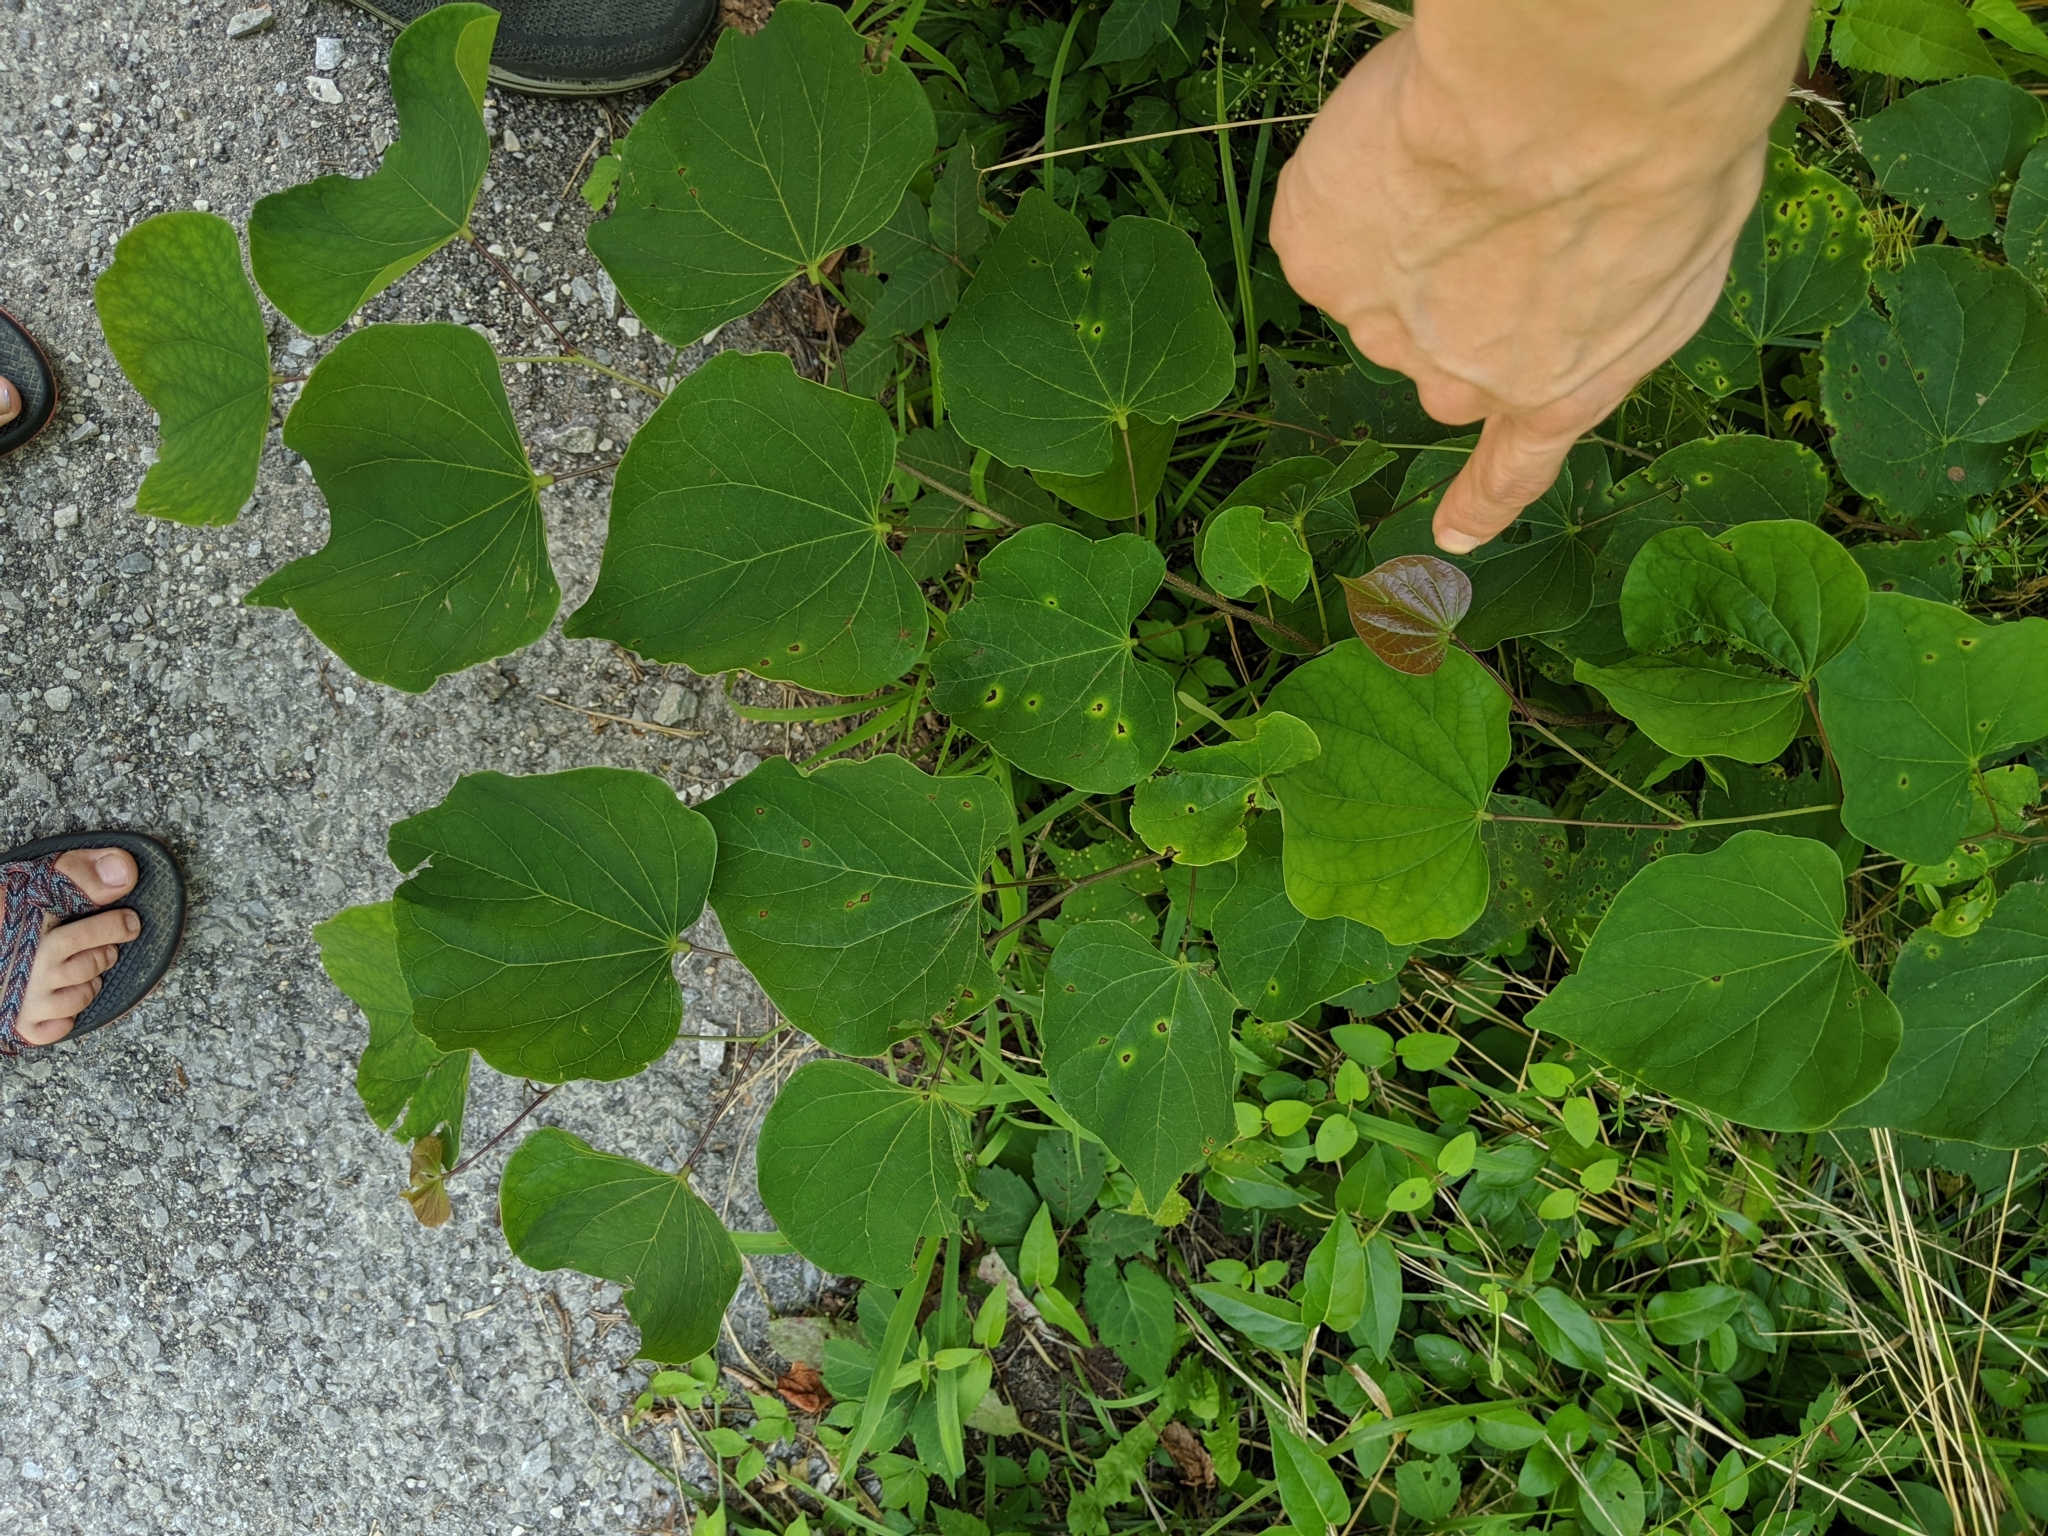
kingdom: Plantae
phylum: Tracheophyta
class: Magnoliopsida
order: Fabales
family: Fabaceae
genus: Cercis
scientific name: Cercis canadensis
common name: Eastern redbud
